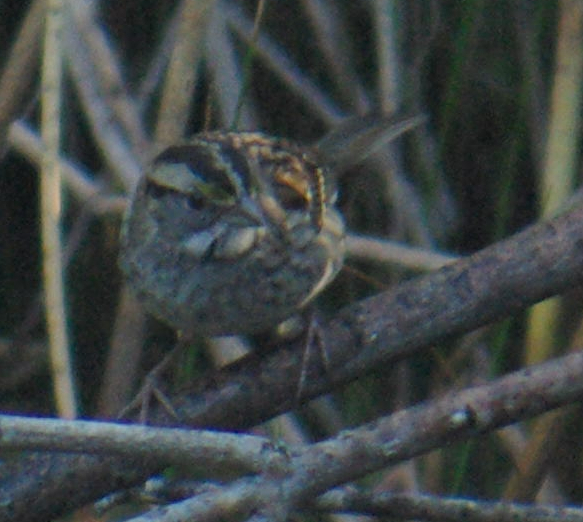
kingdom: Animalia
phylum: Chordata
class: Aves
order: Passeriformes
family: Passerellidae
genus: Zonotrichia
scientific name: Zonotrichia albicollis
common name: White-throated sparrow
